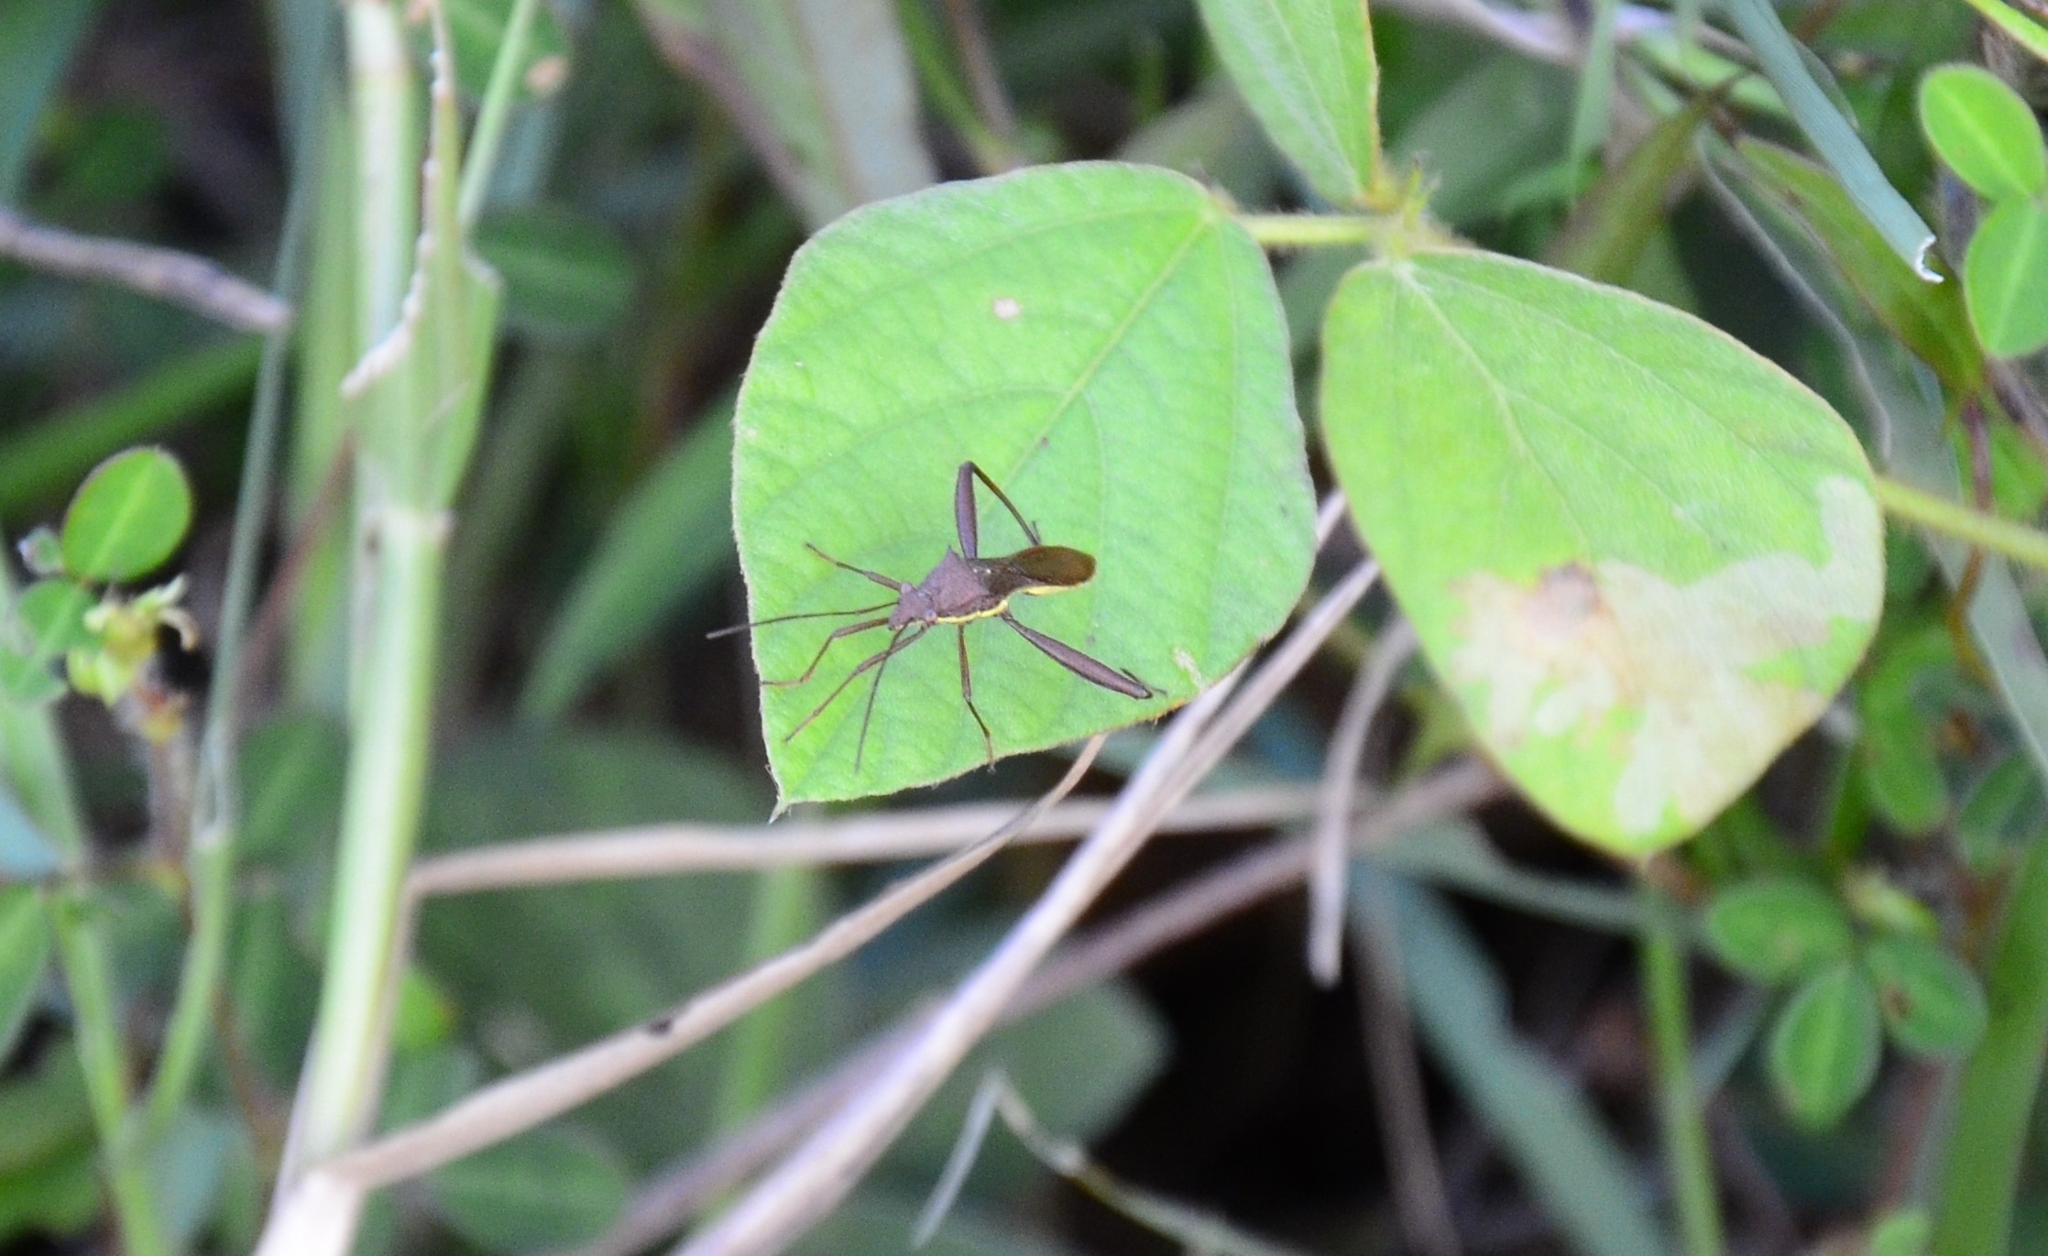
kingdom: Animalia
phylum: Arthropoda
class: Insecta
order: Hemiptera
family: Alydidae
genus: Riptortus
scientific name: Riptortus linearis
